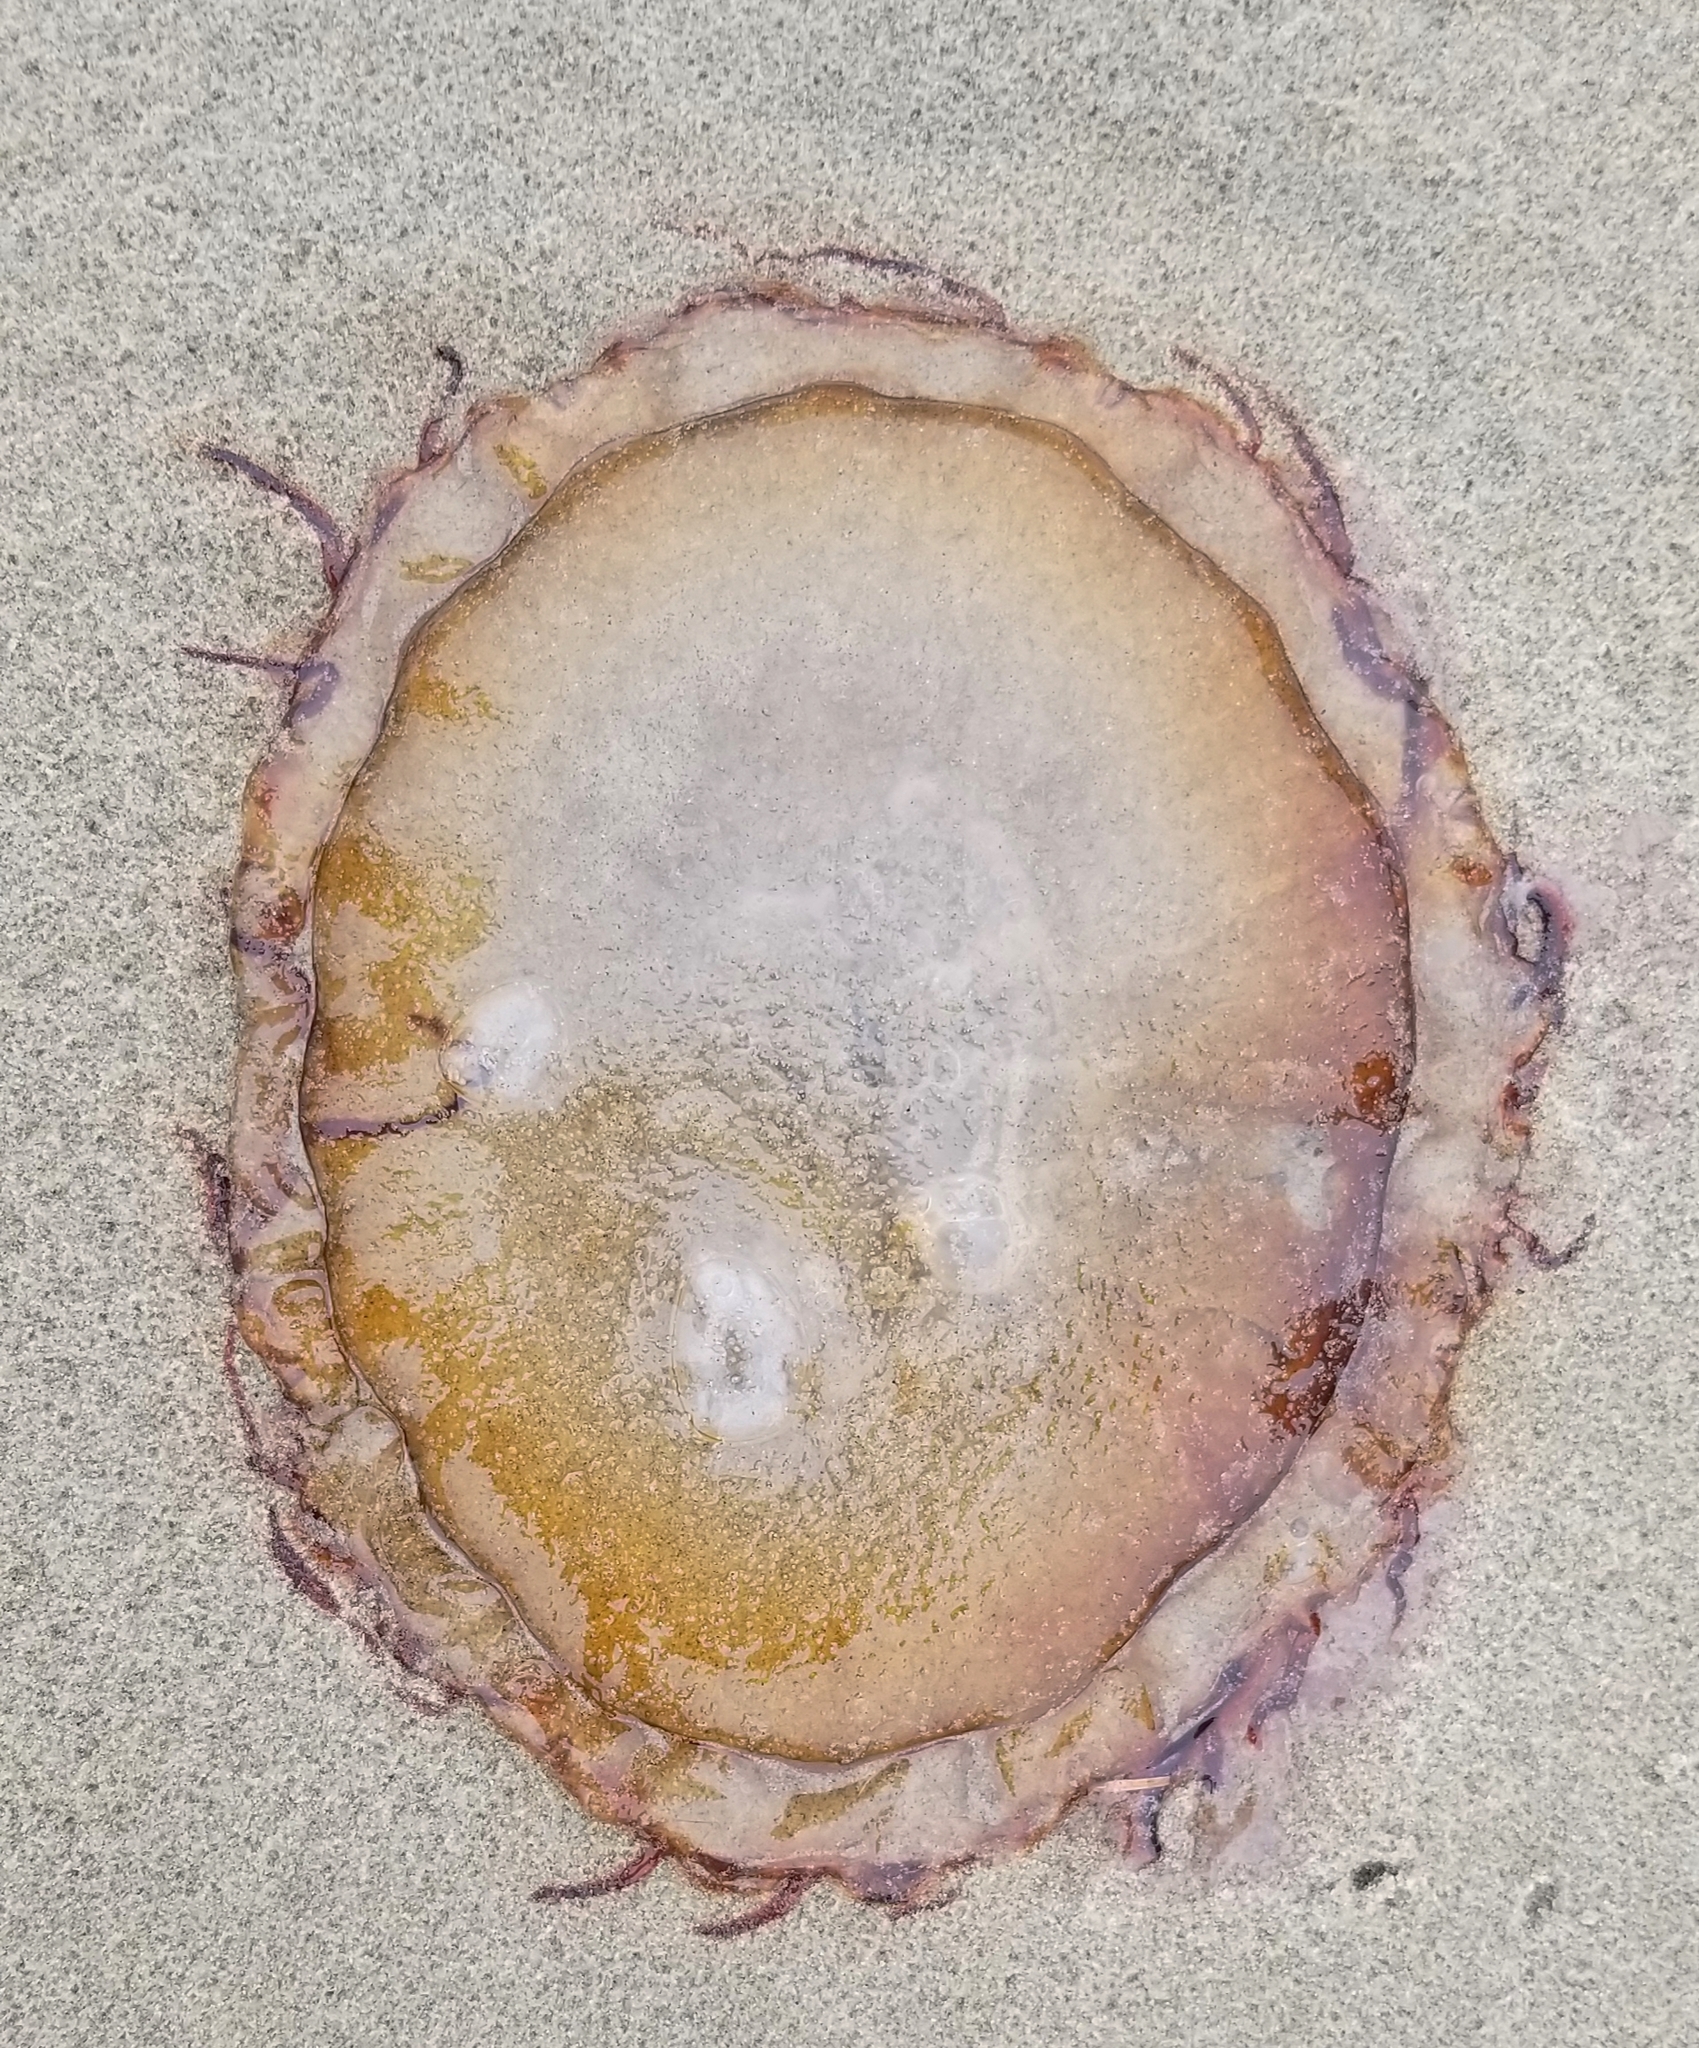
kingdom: Animalia
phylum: Cnidaria
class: Scyphozoa
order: Semaeostomeae
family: Pelagiidae
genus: Chrysaora
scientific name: Chrysaora fuscescens
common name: Sea nettle
